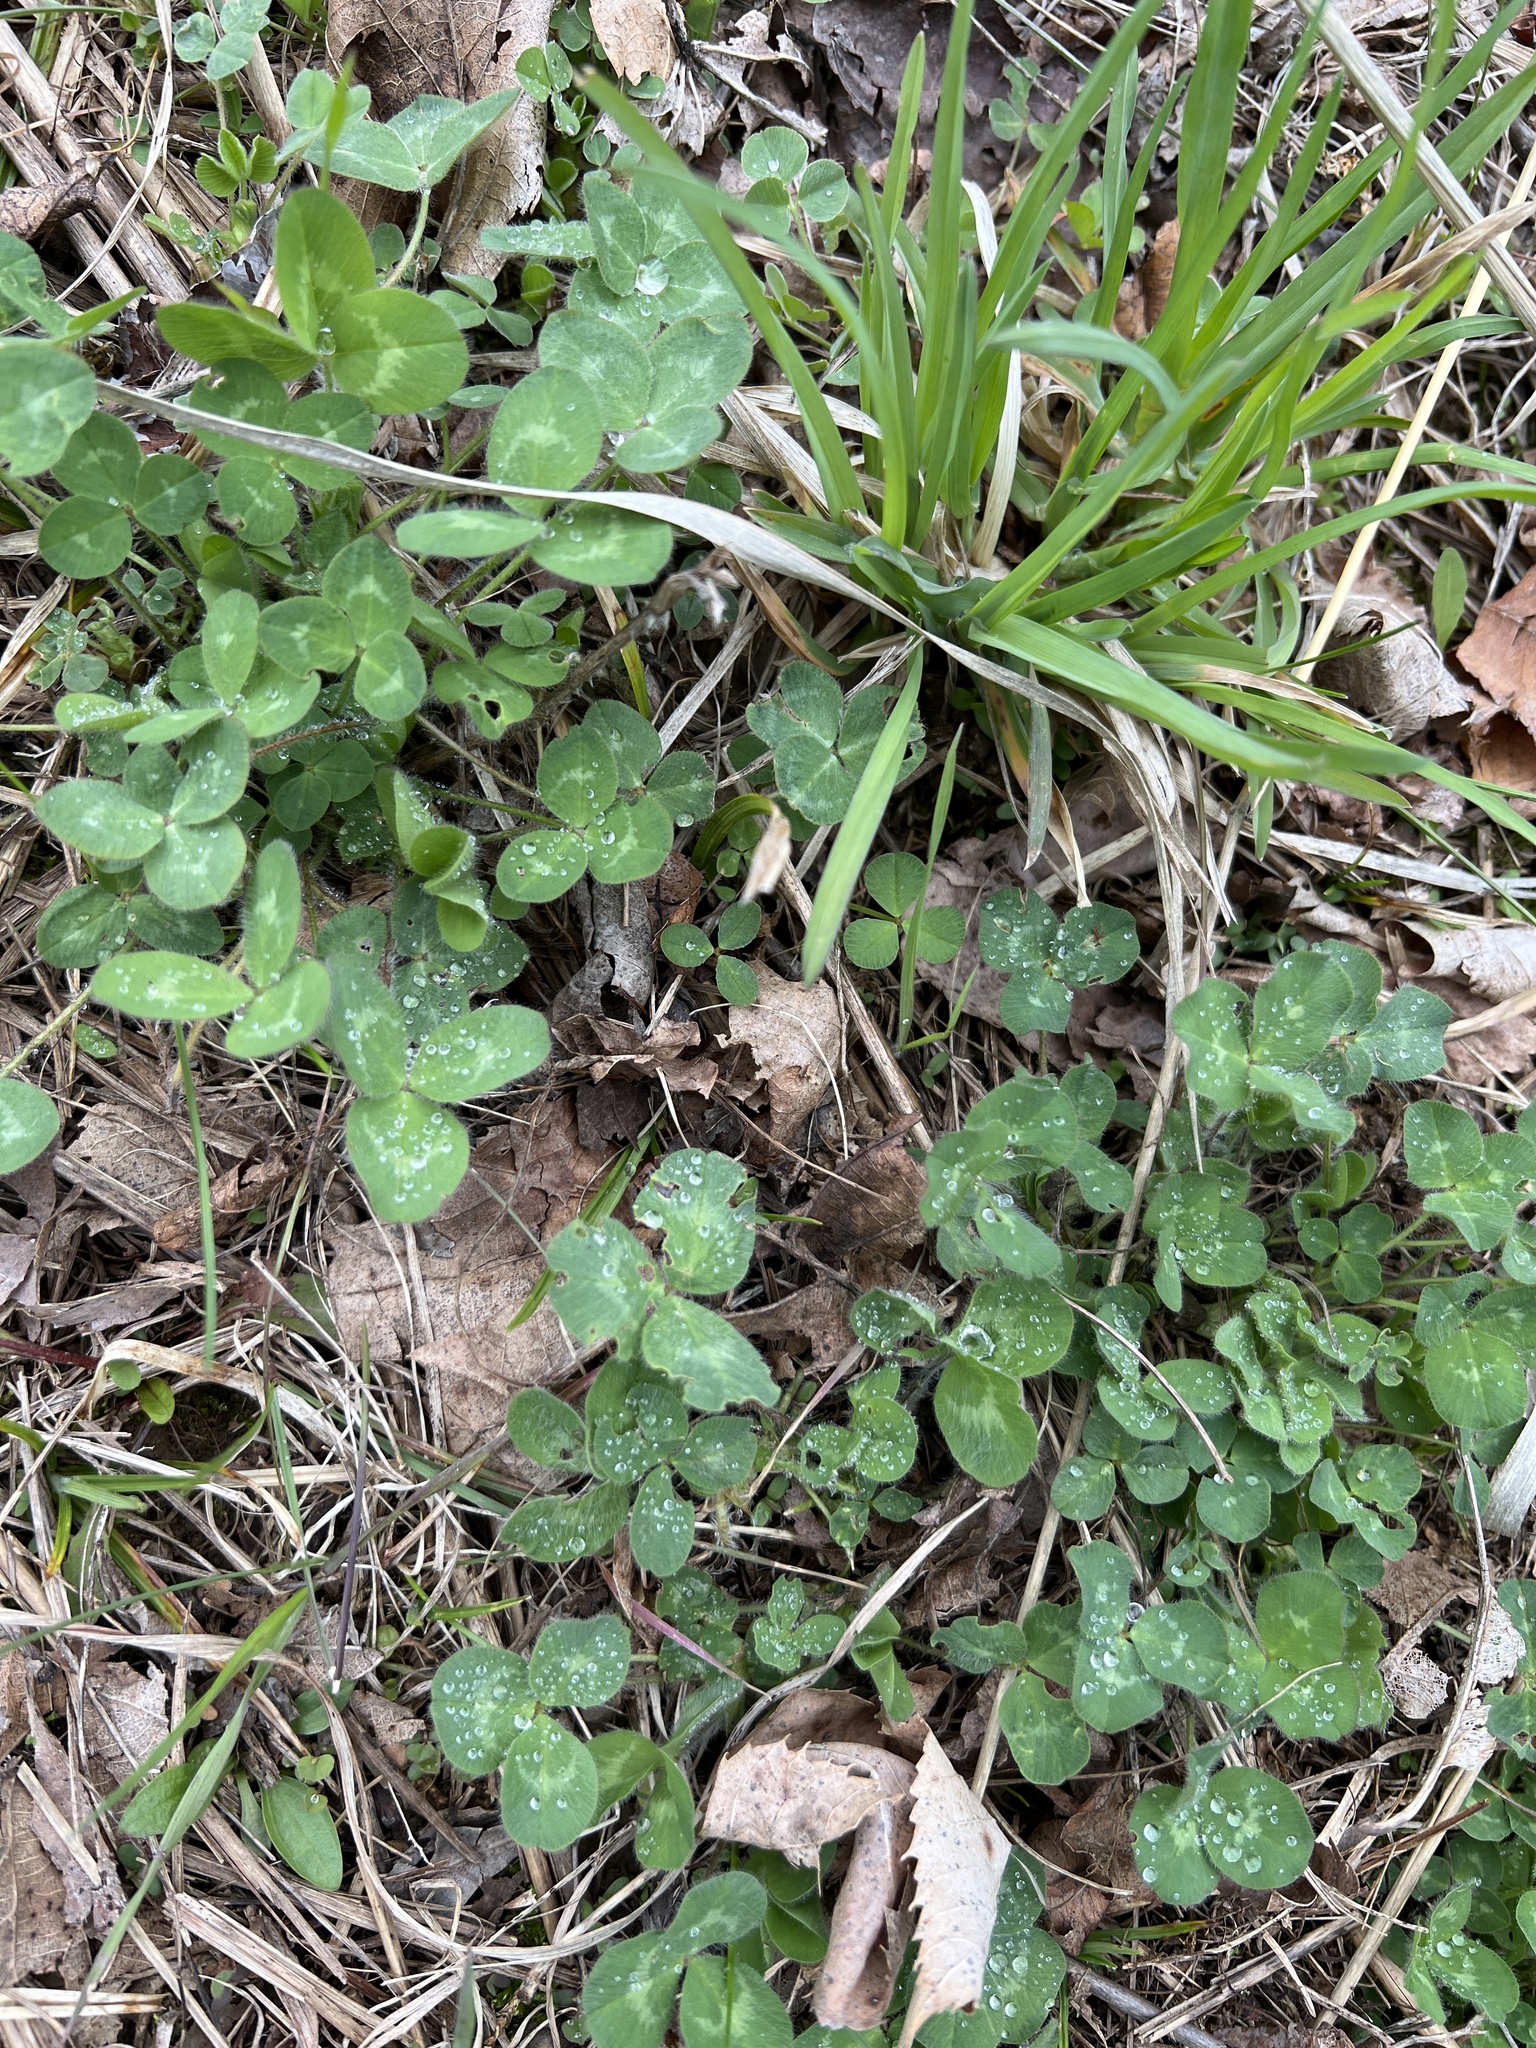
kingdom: Plantae
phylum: Tracheophyta
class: Magnoliopsida
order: Fabales
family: Fabaceae
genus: Trifolium
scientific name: Trifolium pratense
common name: Red clover
